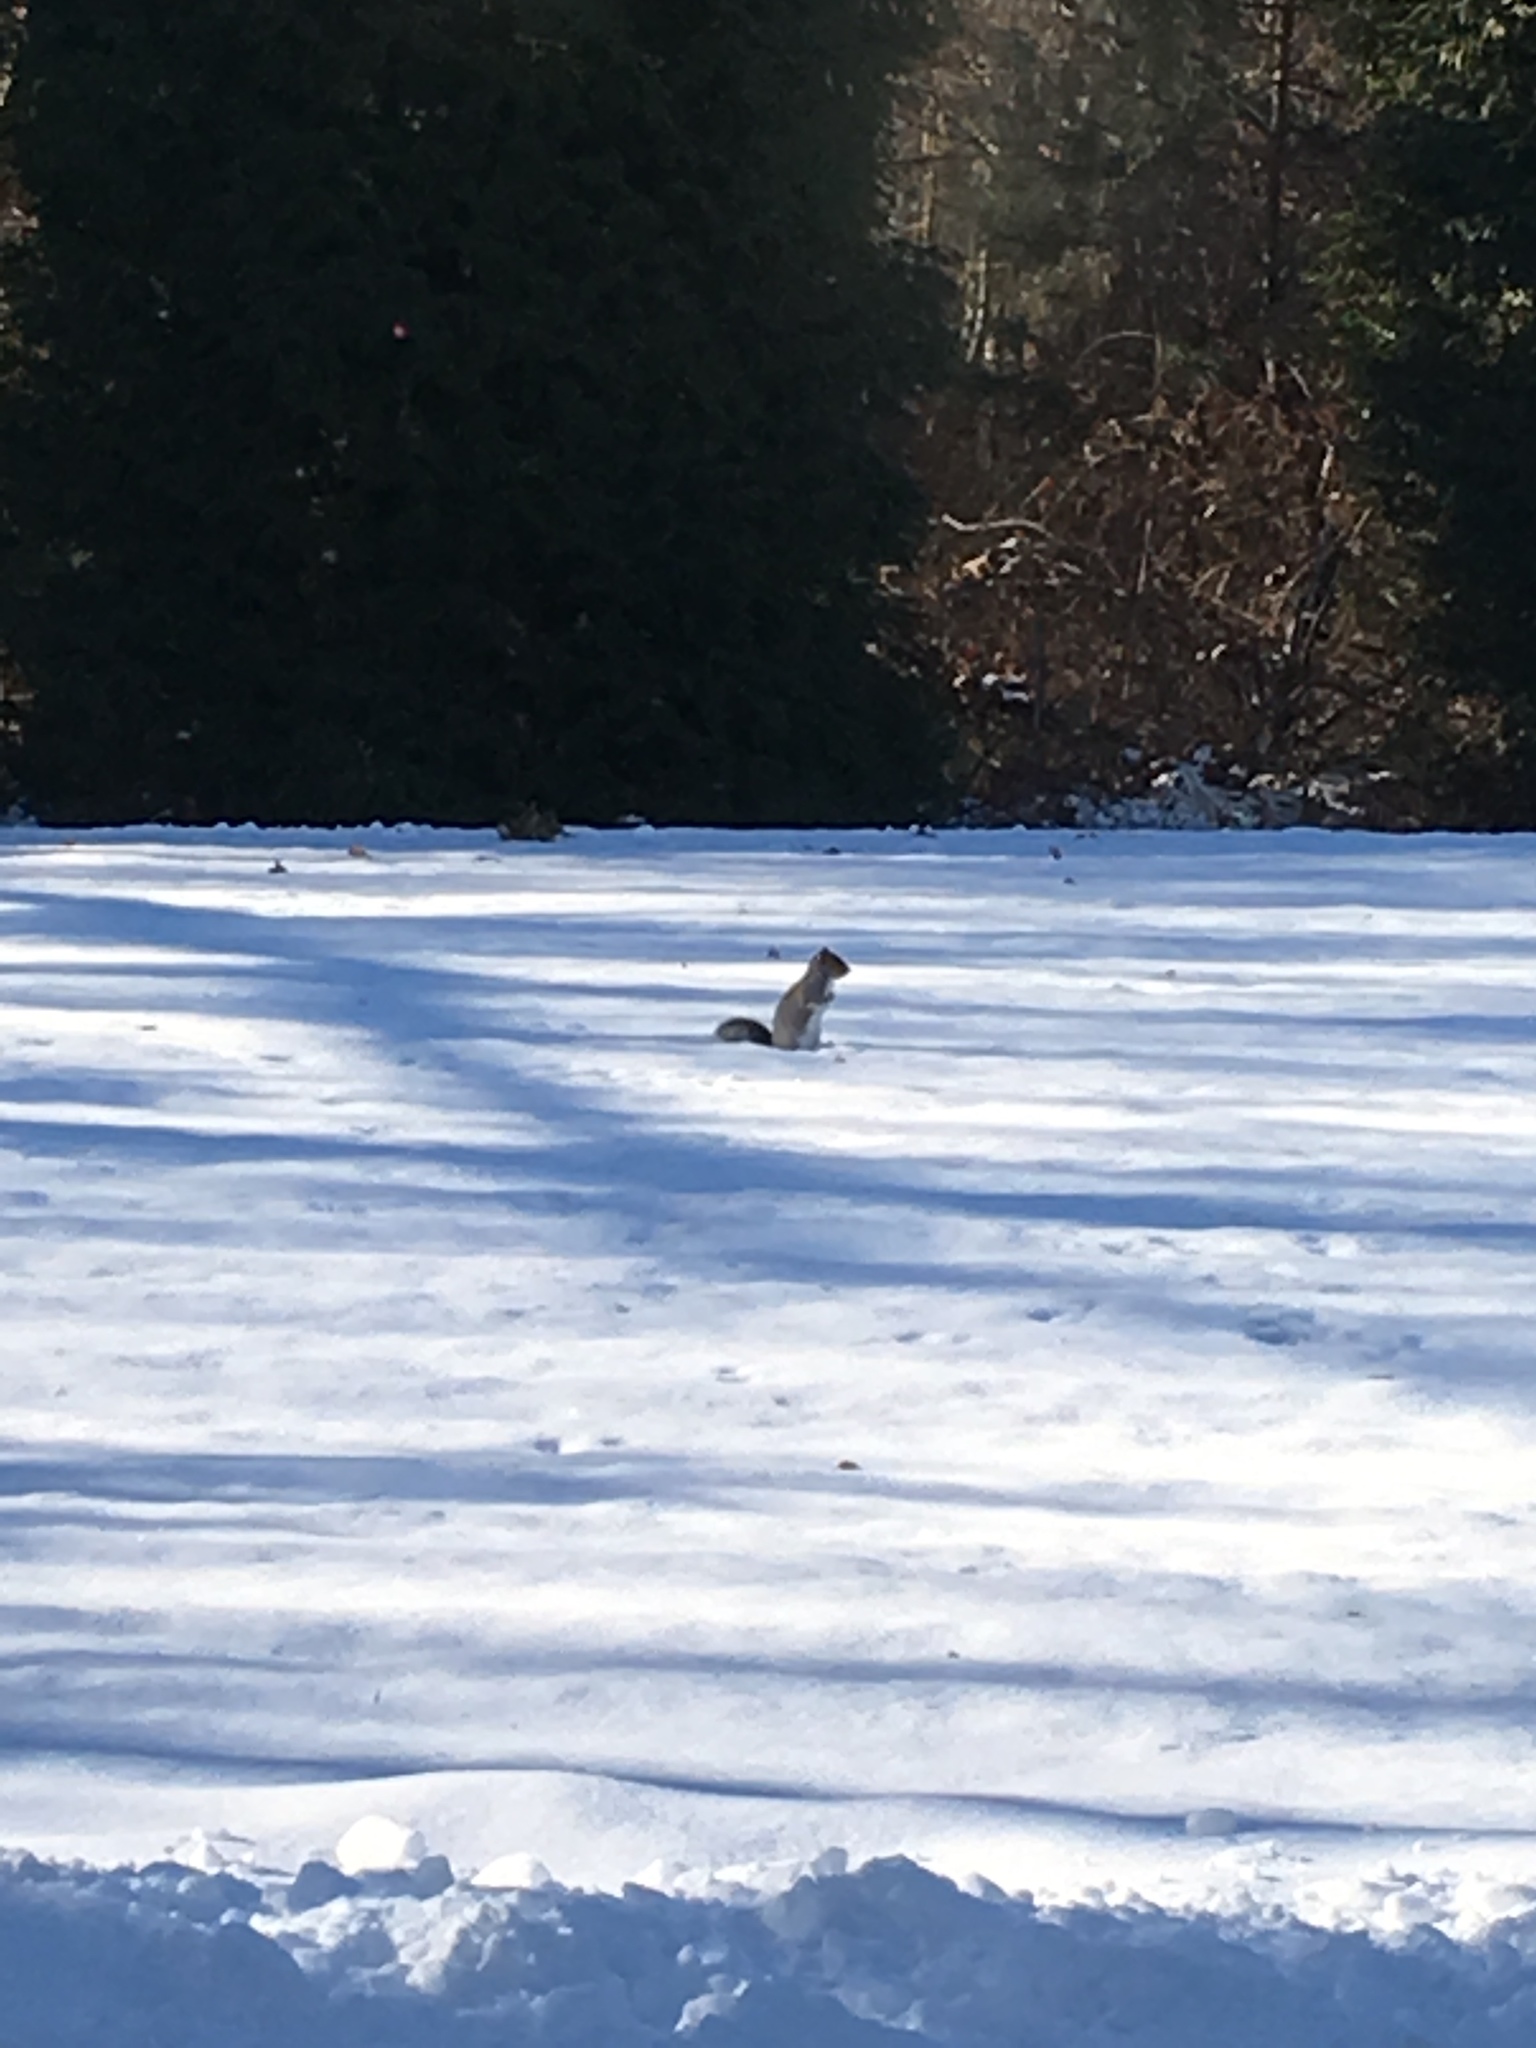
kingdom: Animalia
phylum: Chordata
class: Mammalia
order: Rodentia
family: Sciuridae
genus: Sciurus
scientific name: Sciurus carolinensis
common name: Eastern gray squirrel
